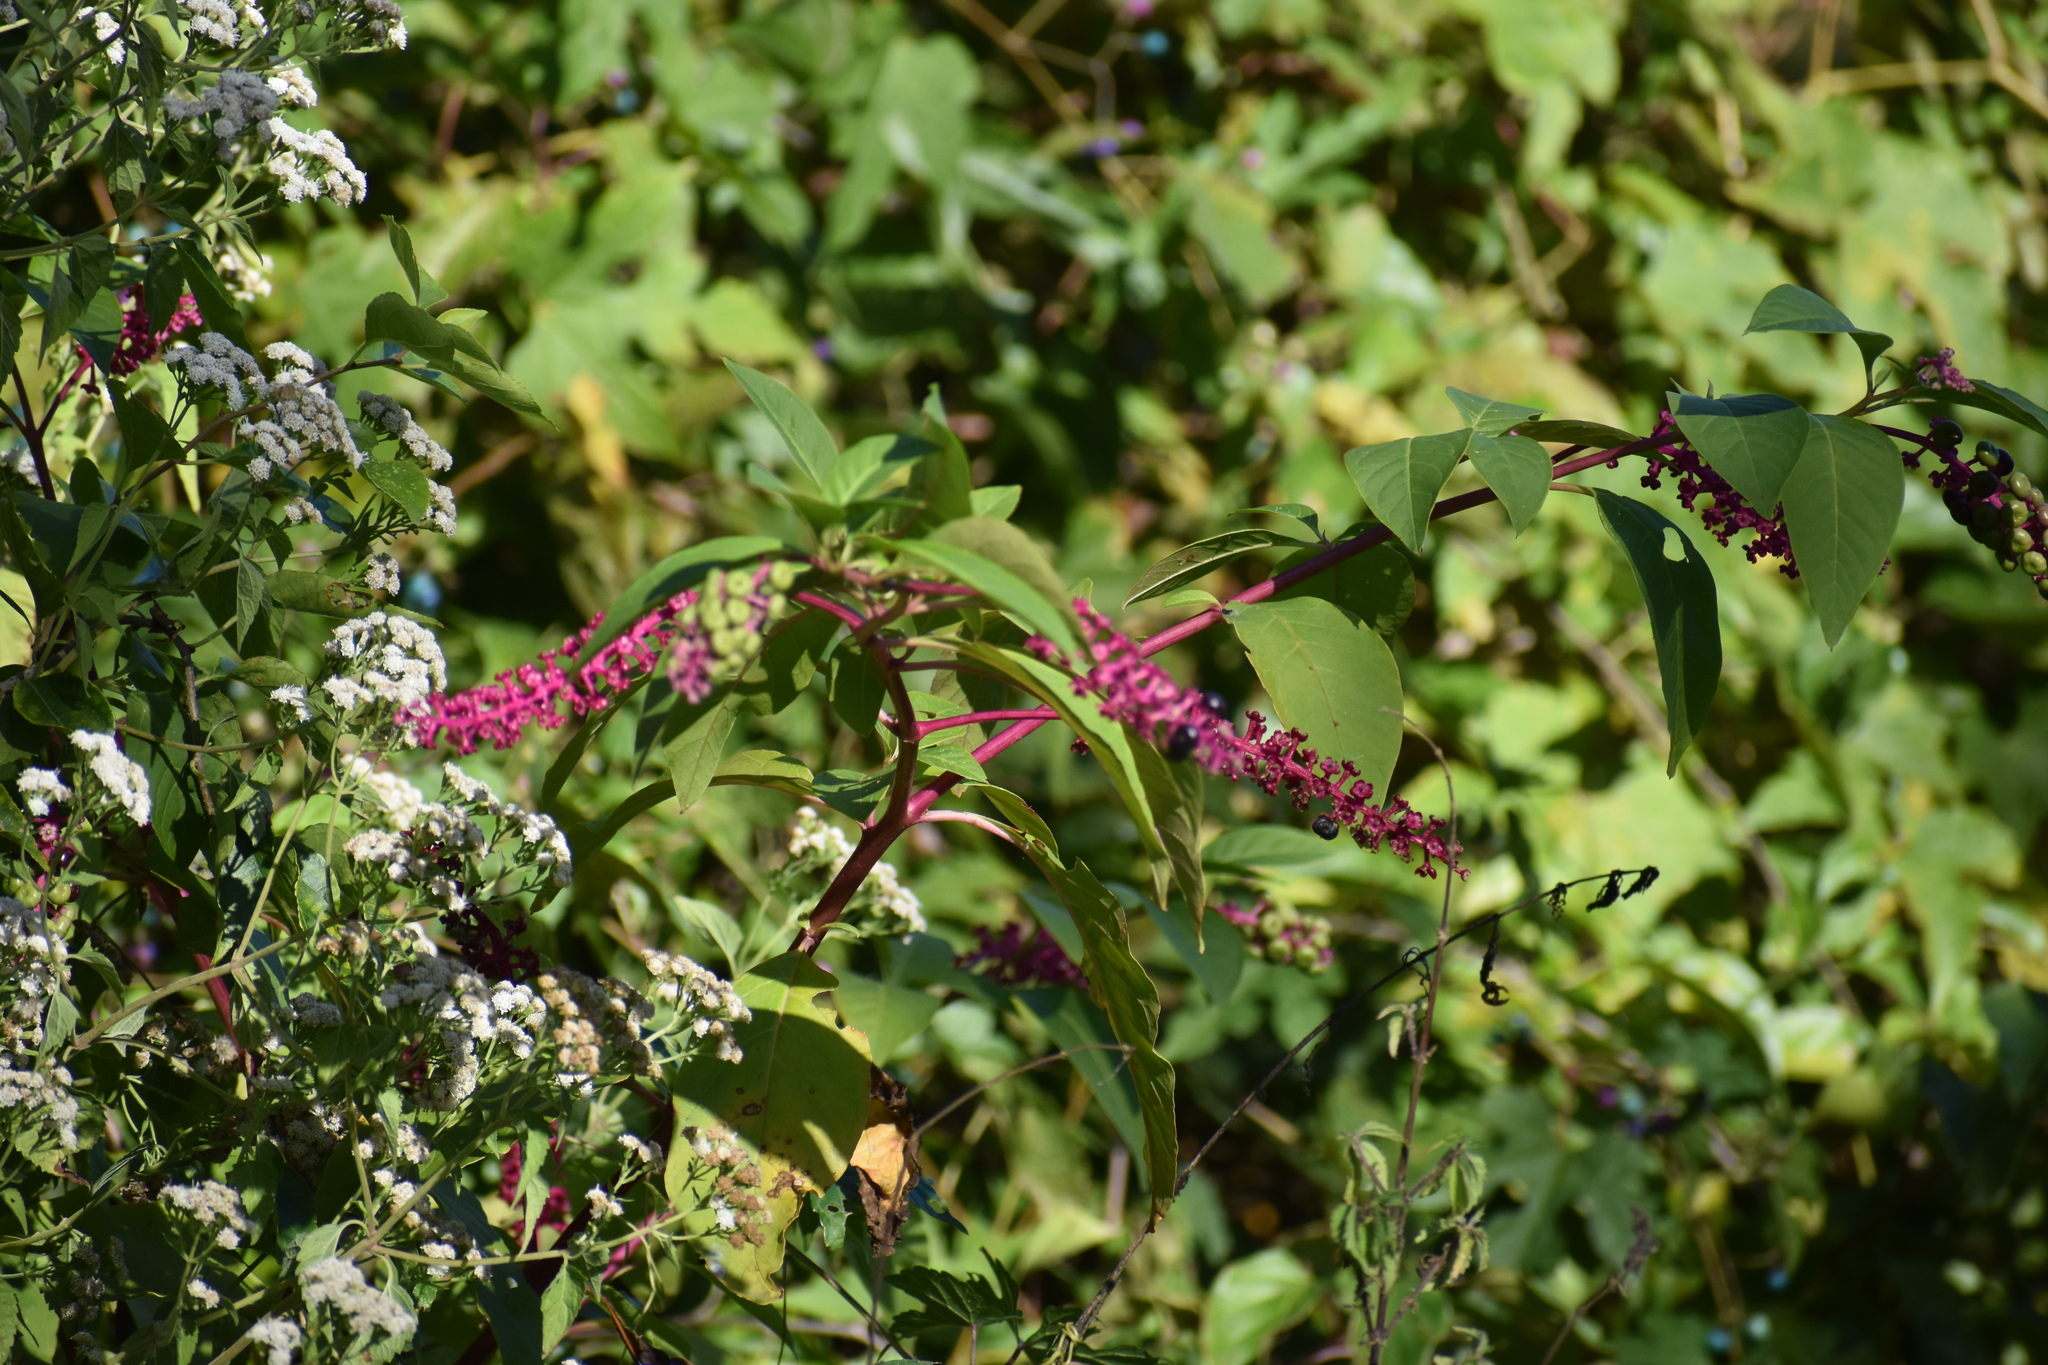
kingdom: Plantae
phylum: Tracheophyta
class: Magnoliopsida
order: Caryophyllales
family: Phytolaccaceae
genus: Phytolacca
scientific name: Phytolacca americana
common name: American pokeweed
